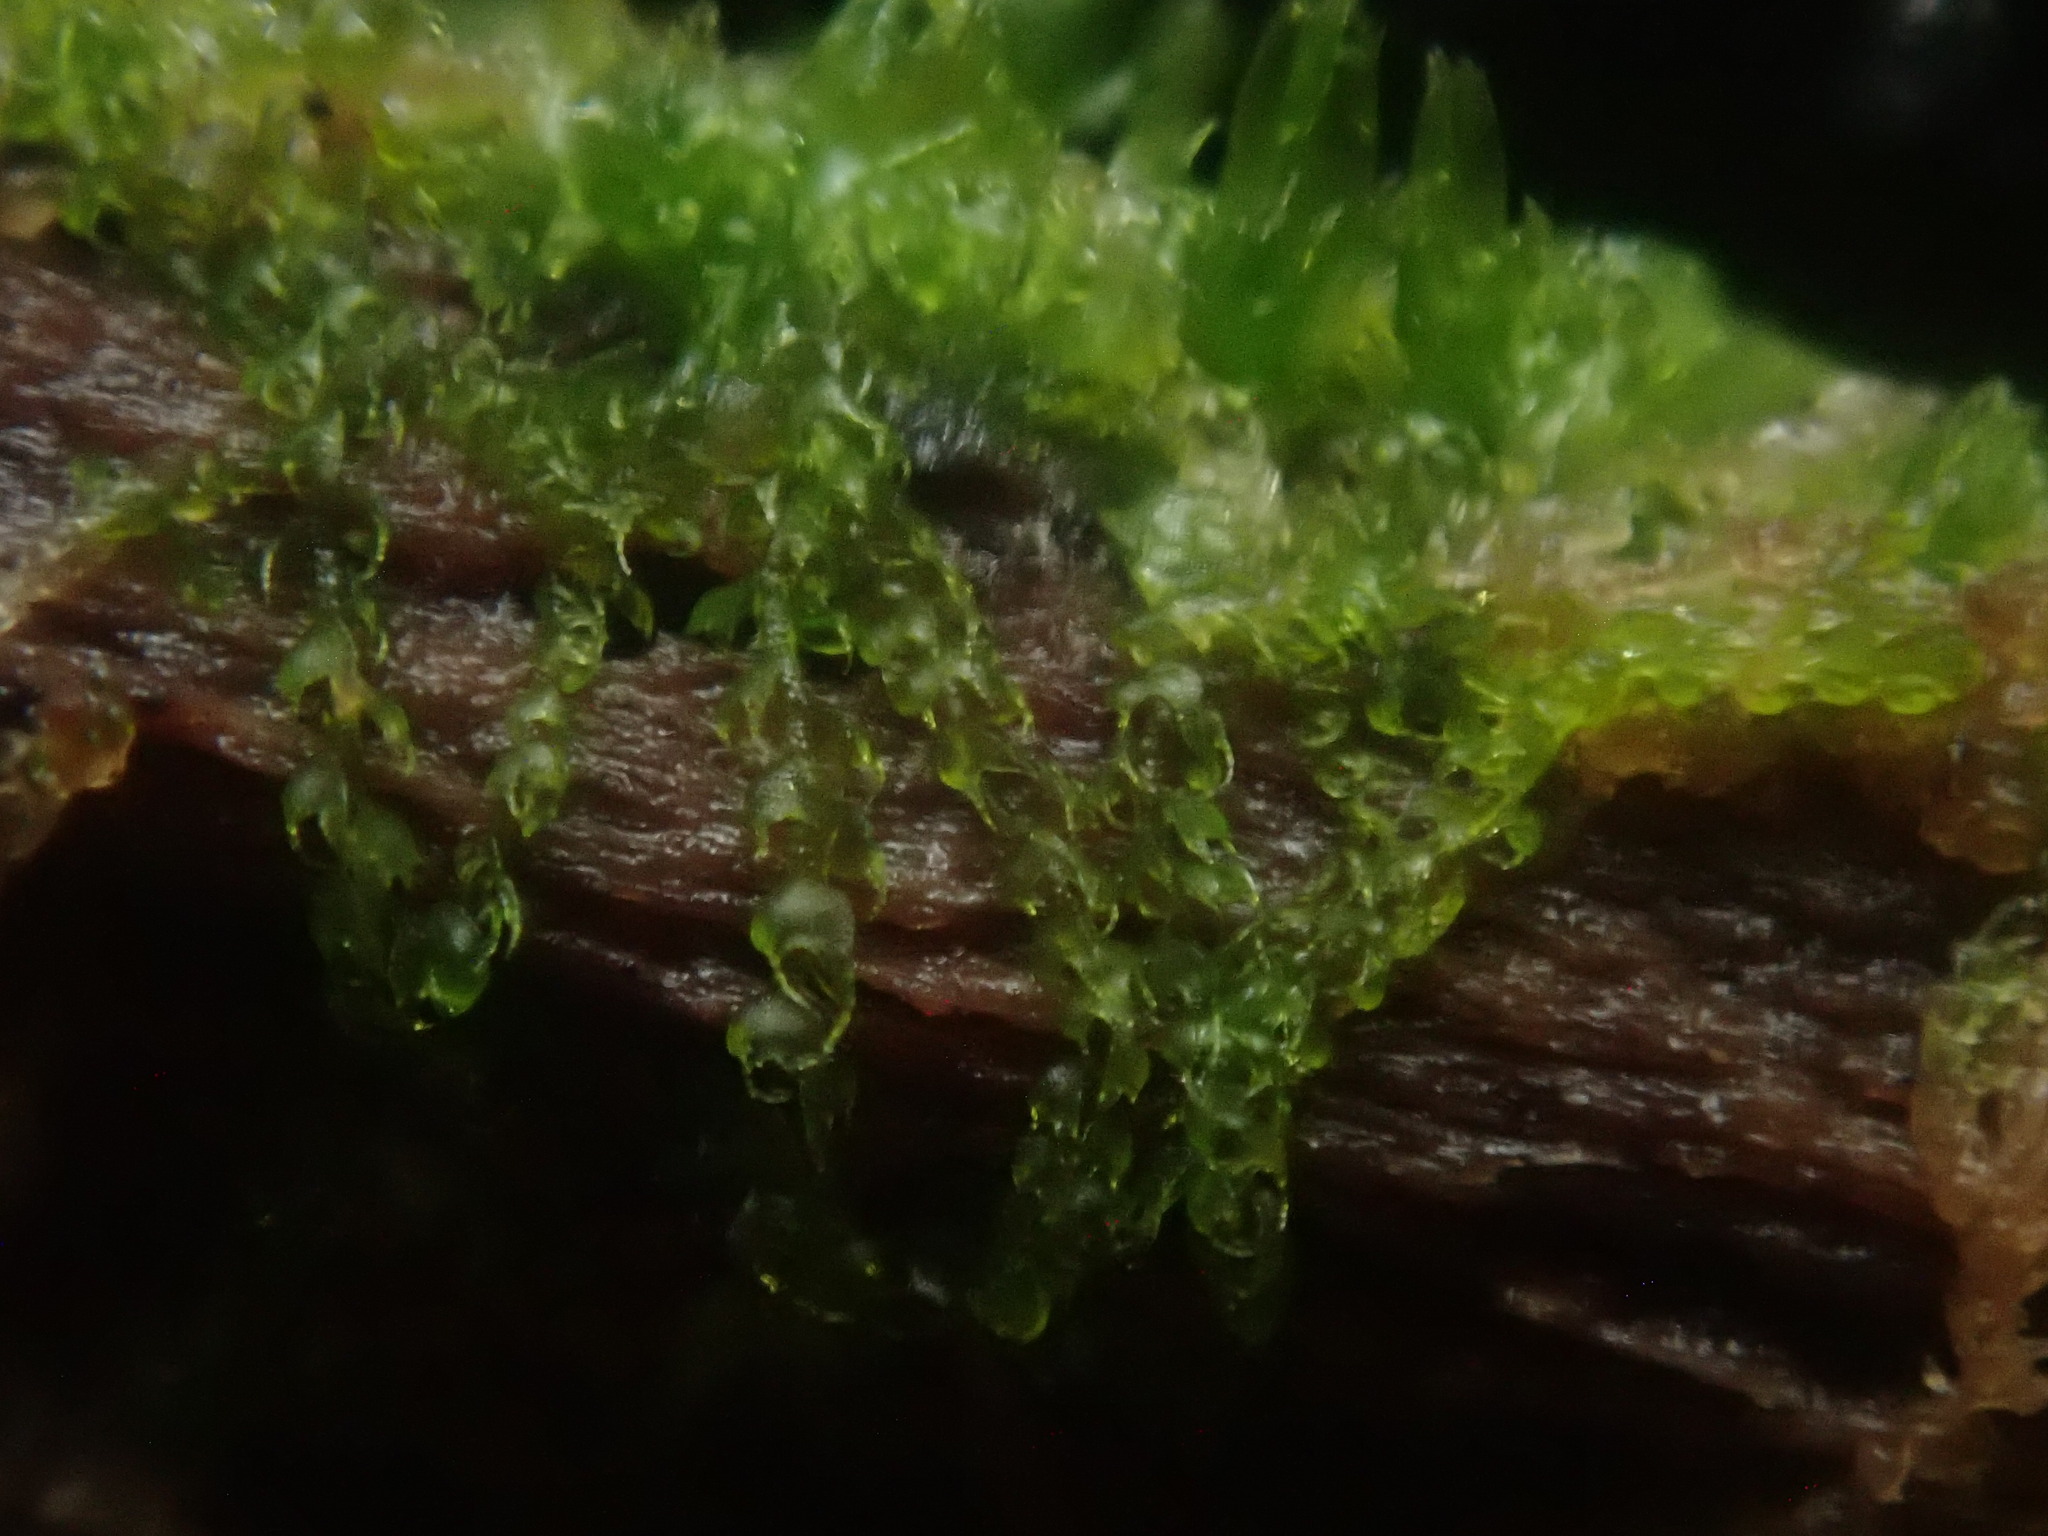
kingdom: Plantae
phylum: Marchantiophyta
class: Jungermanniopsida
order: Jungermanniales
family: Cephaloziaceae
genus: Nowellia
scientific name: Nowellia curvifolia
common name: Wood rustwort
